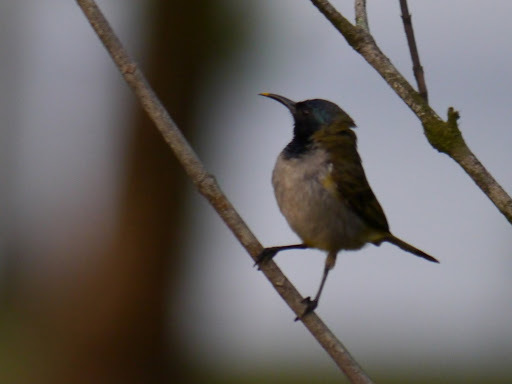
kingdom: Animalia
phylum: Chordata
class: Aves
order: Passeriformes
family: Nectariniidae
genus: Anabathmis
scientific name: Anabathmis reichenbachii
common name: Reichenbach's sunbird
